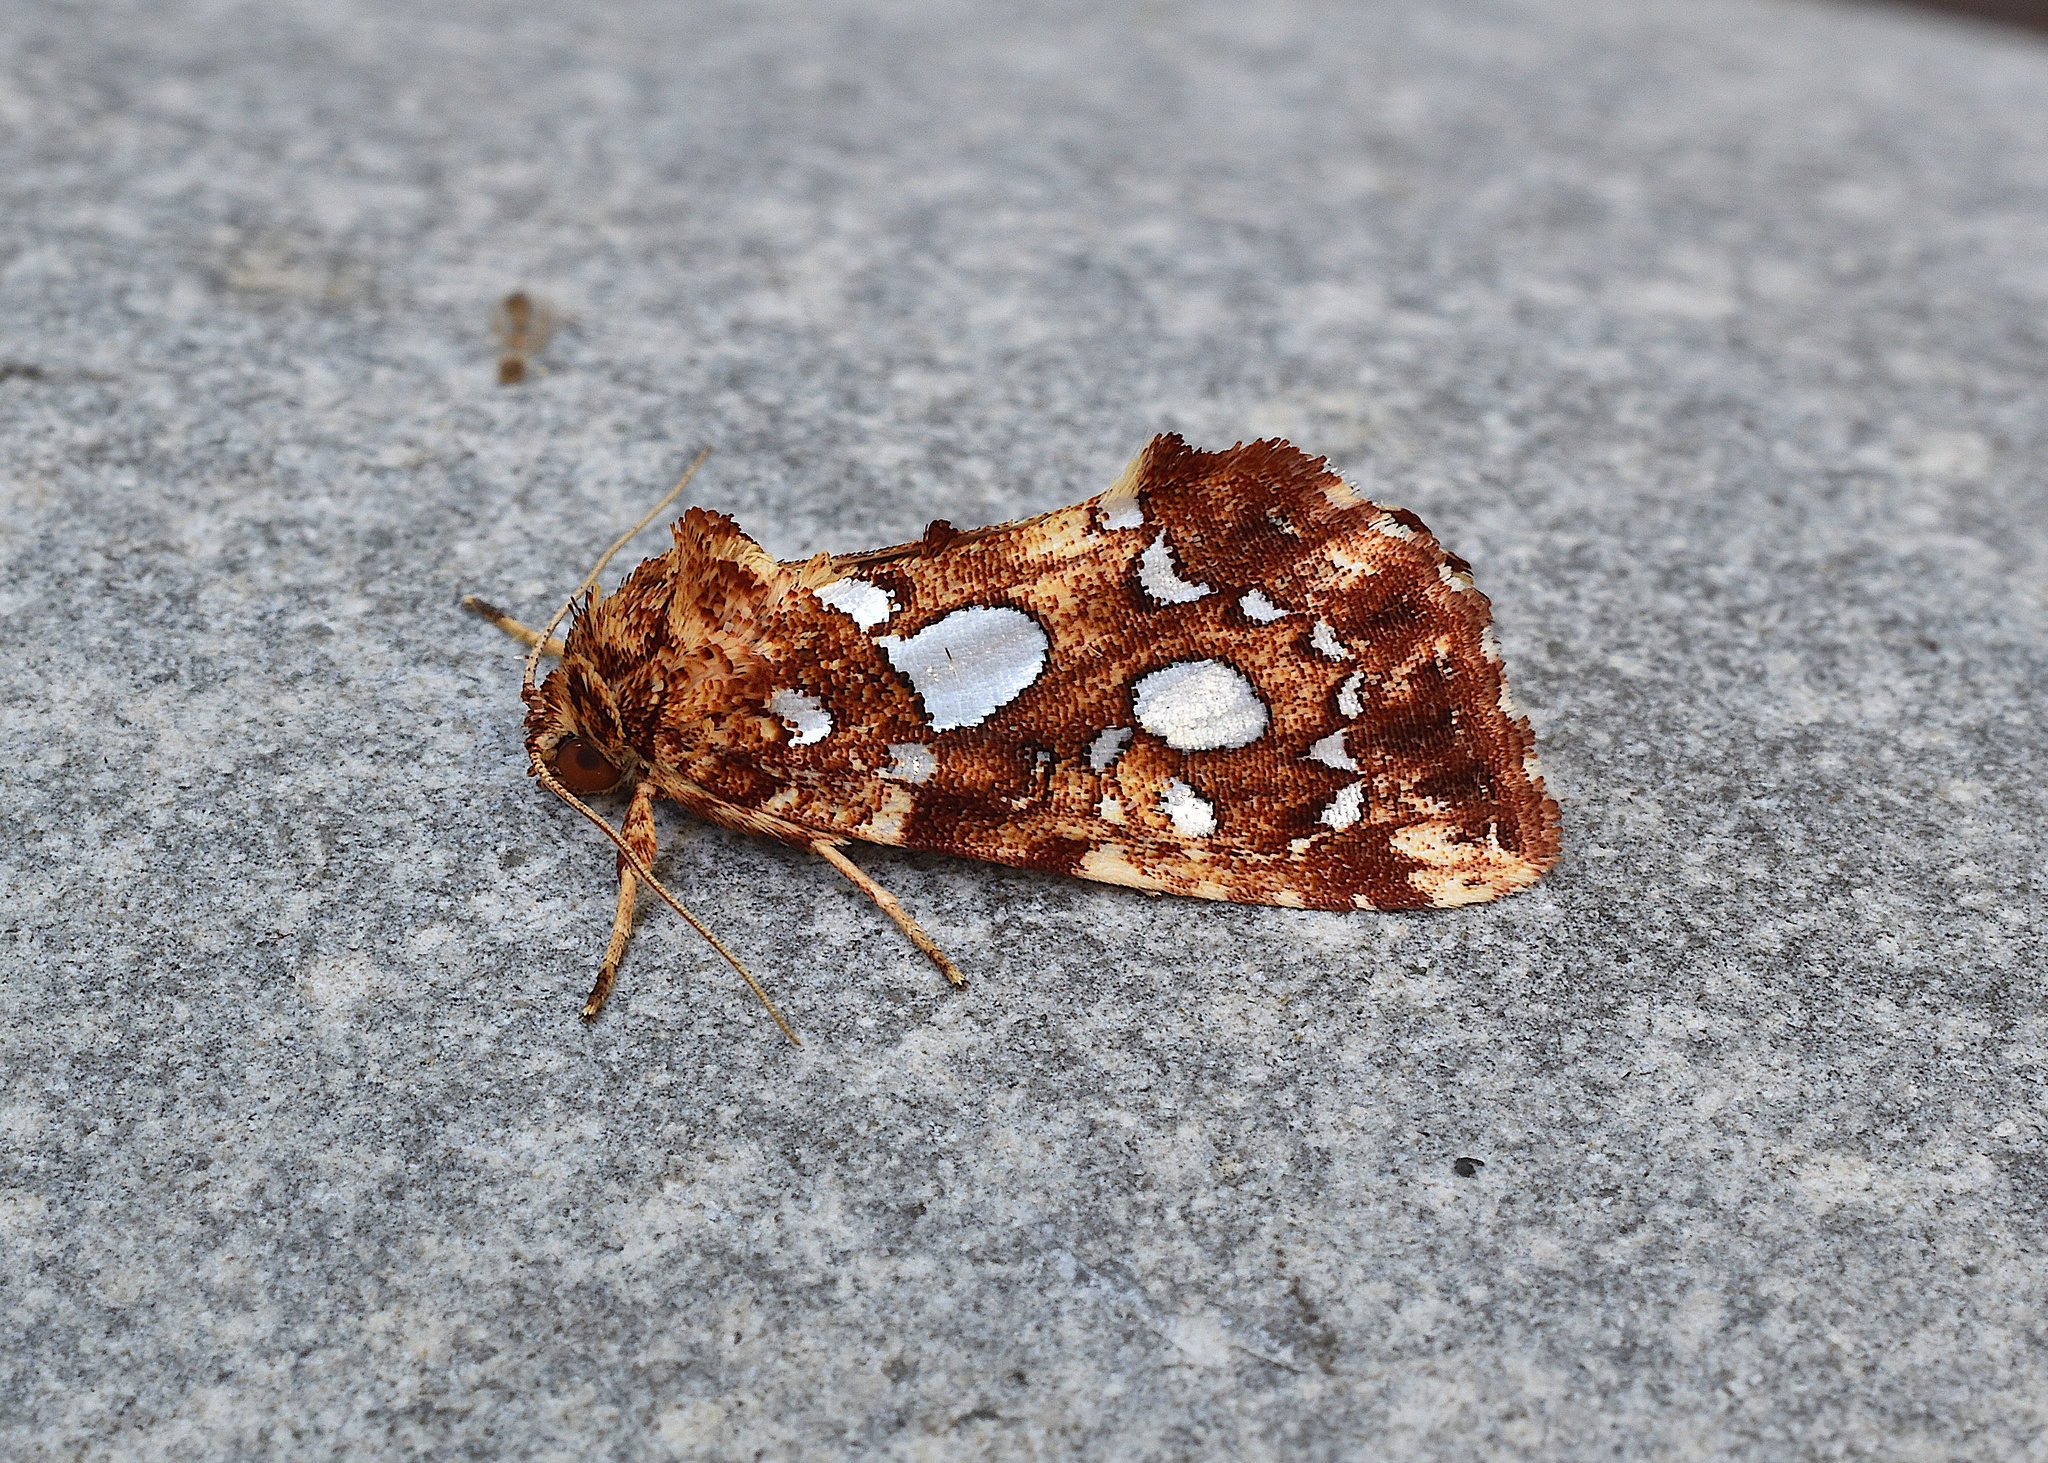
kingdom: Animalia
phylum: Arthropoda
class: Insecta
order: Lepidoptera
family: Noctuidae
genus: Callopistria
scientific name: Callopistria cordata
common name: Silver-spotted fern moth
